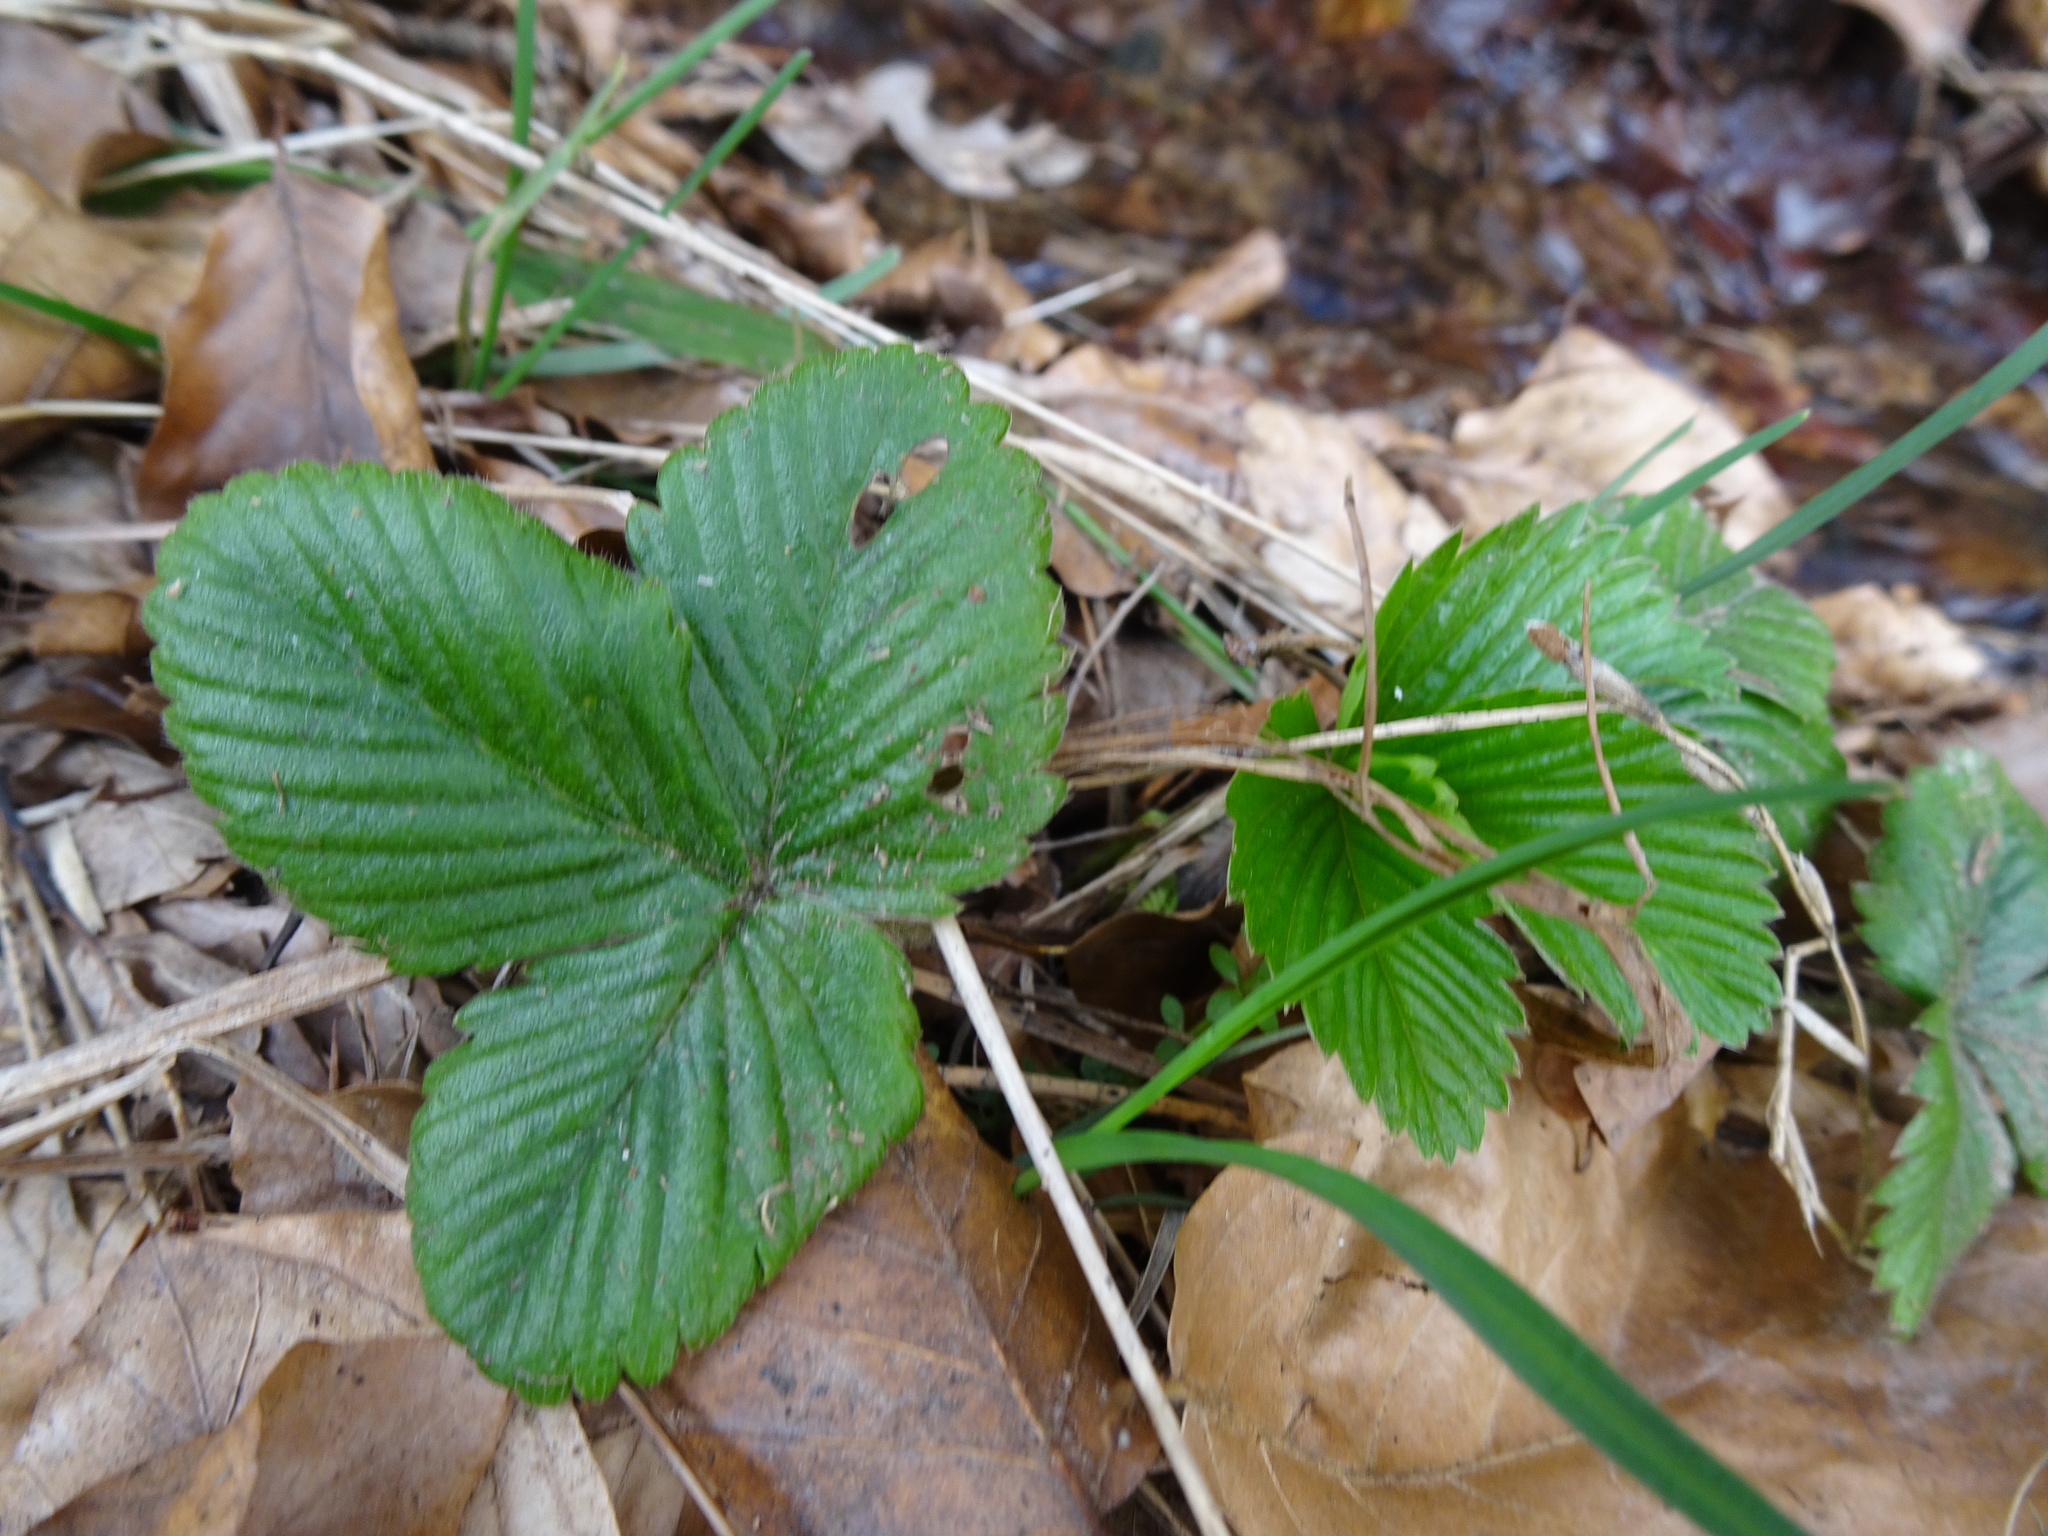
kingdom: Plantae
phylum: Tracheophyta
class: Magnoliopsida
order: Rosales
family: Rosaceae
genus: Fragaria
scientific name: Fragaria vesca
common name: Wild strawberry
